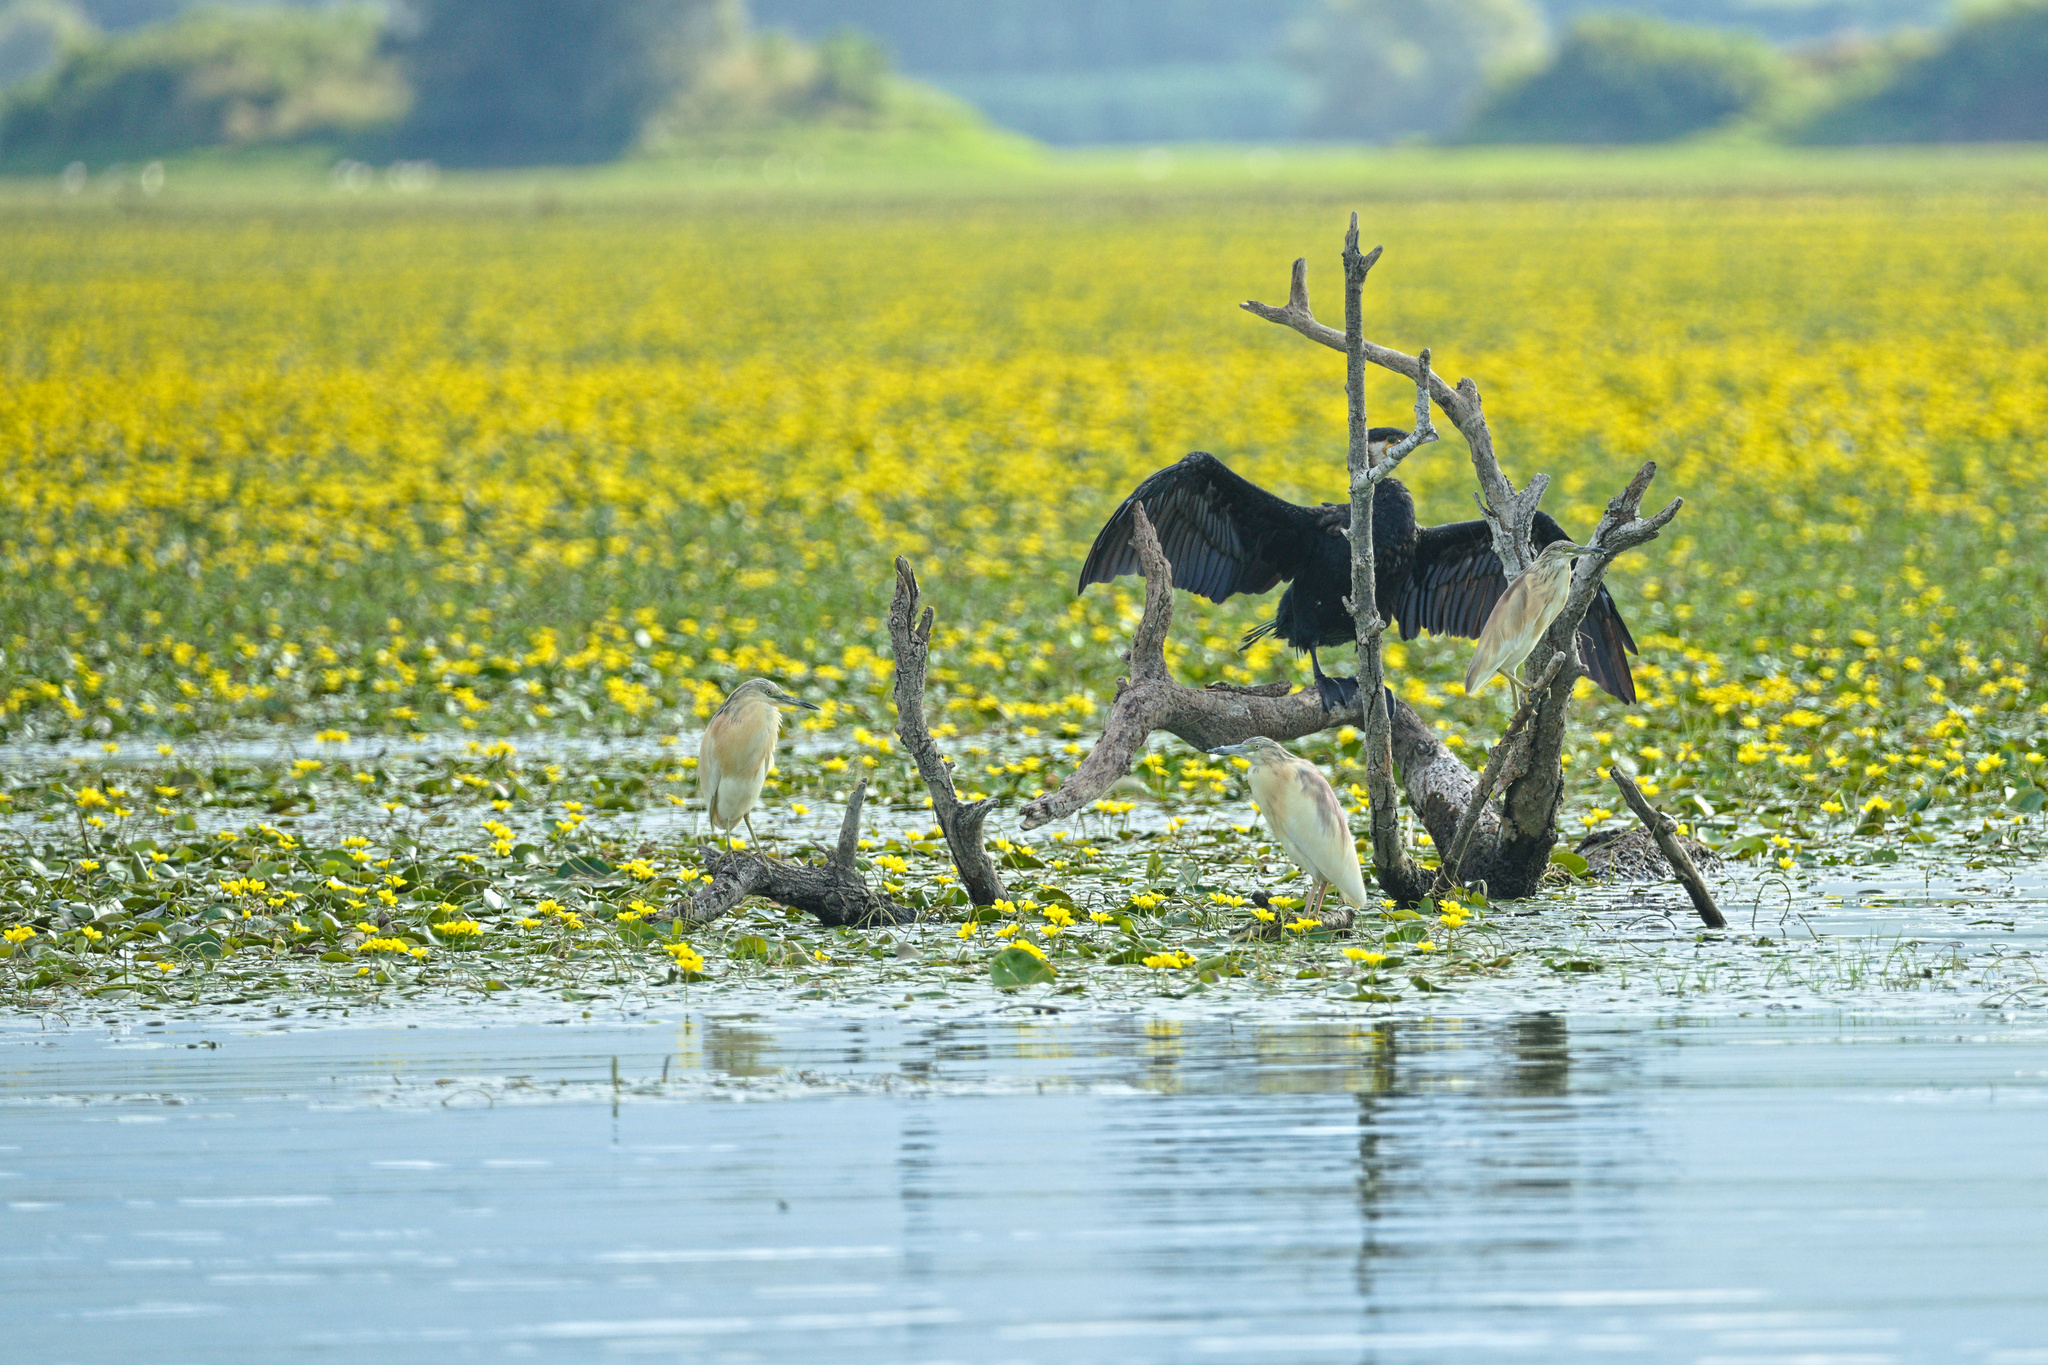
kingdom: Animalia
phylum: Chordata
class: Aves
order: Suliformes
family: Phalacrocoracidae
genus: Phalacrocorax
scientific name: Phalacrocorax carbo
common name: Great cormorant
